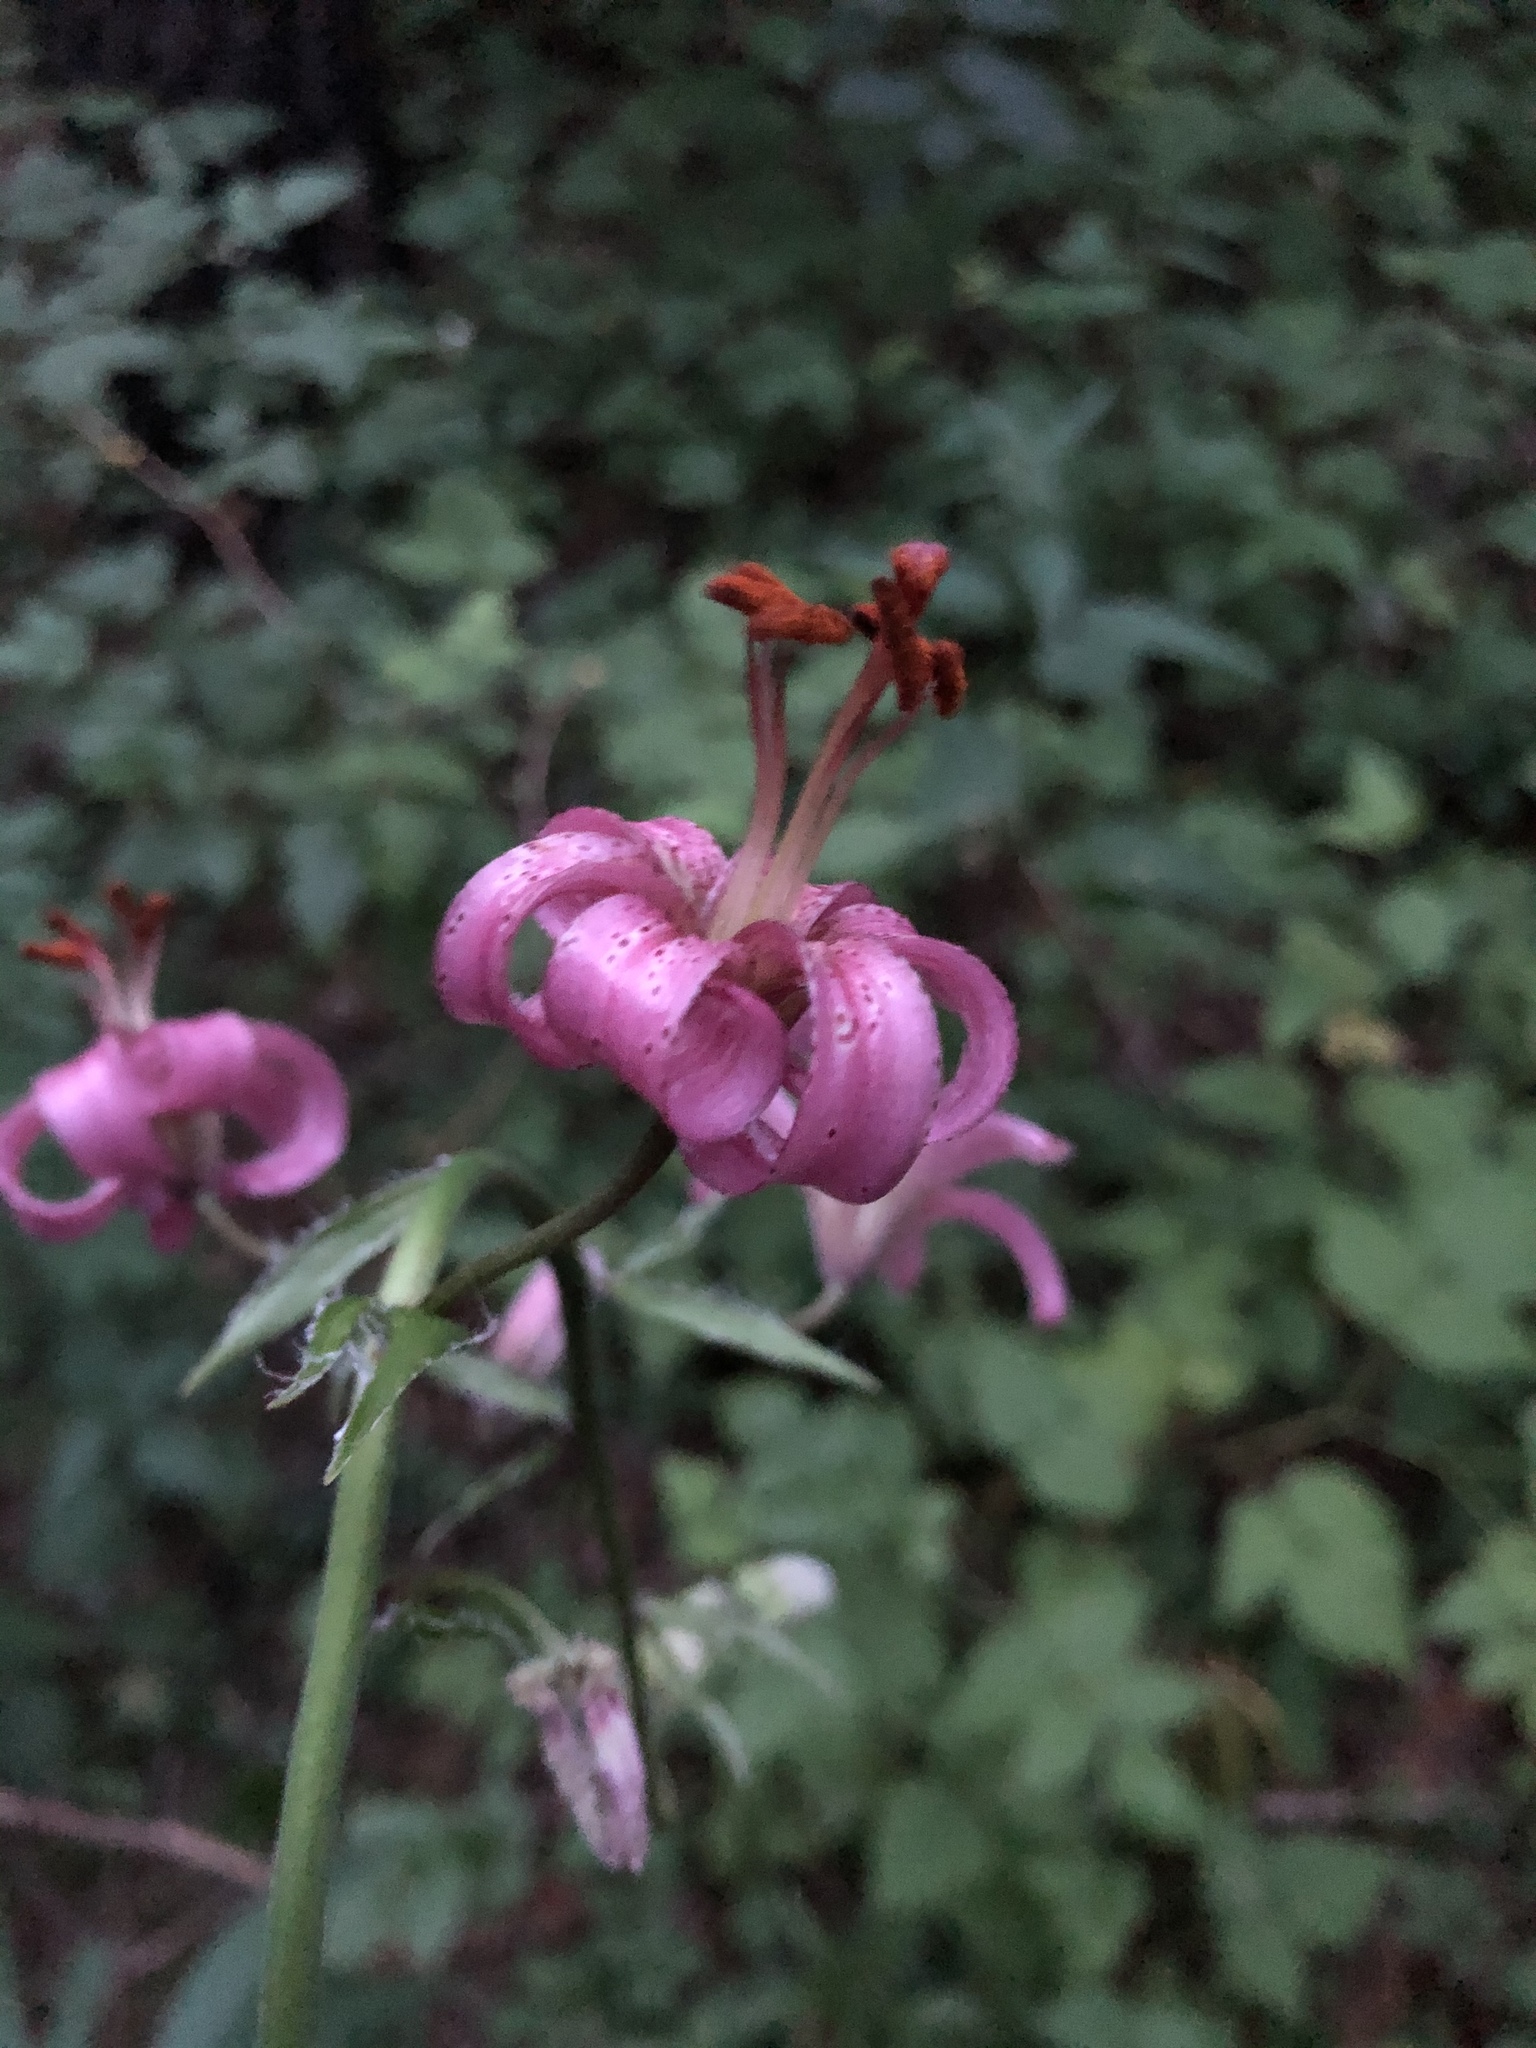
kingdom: Plantae
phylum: Tracheophyta
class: Liliopsida
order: Liliales
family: Liliaceae
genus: Lilium
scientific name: Lilium martagon
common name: Martagon lily
